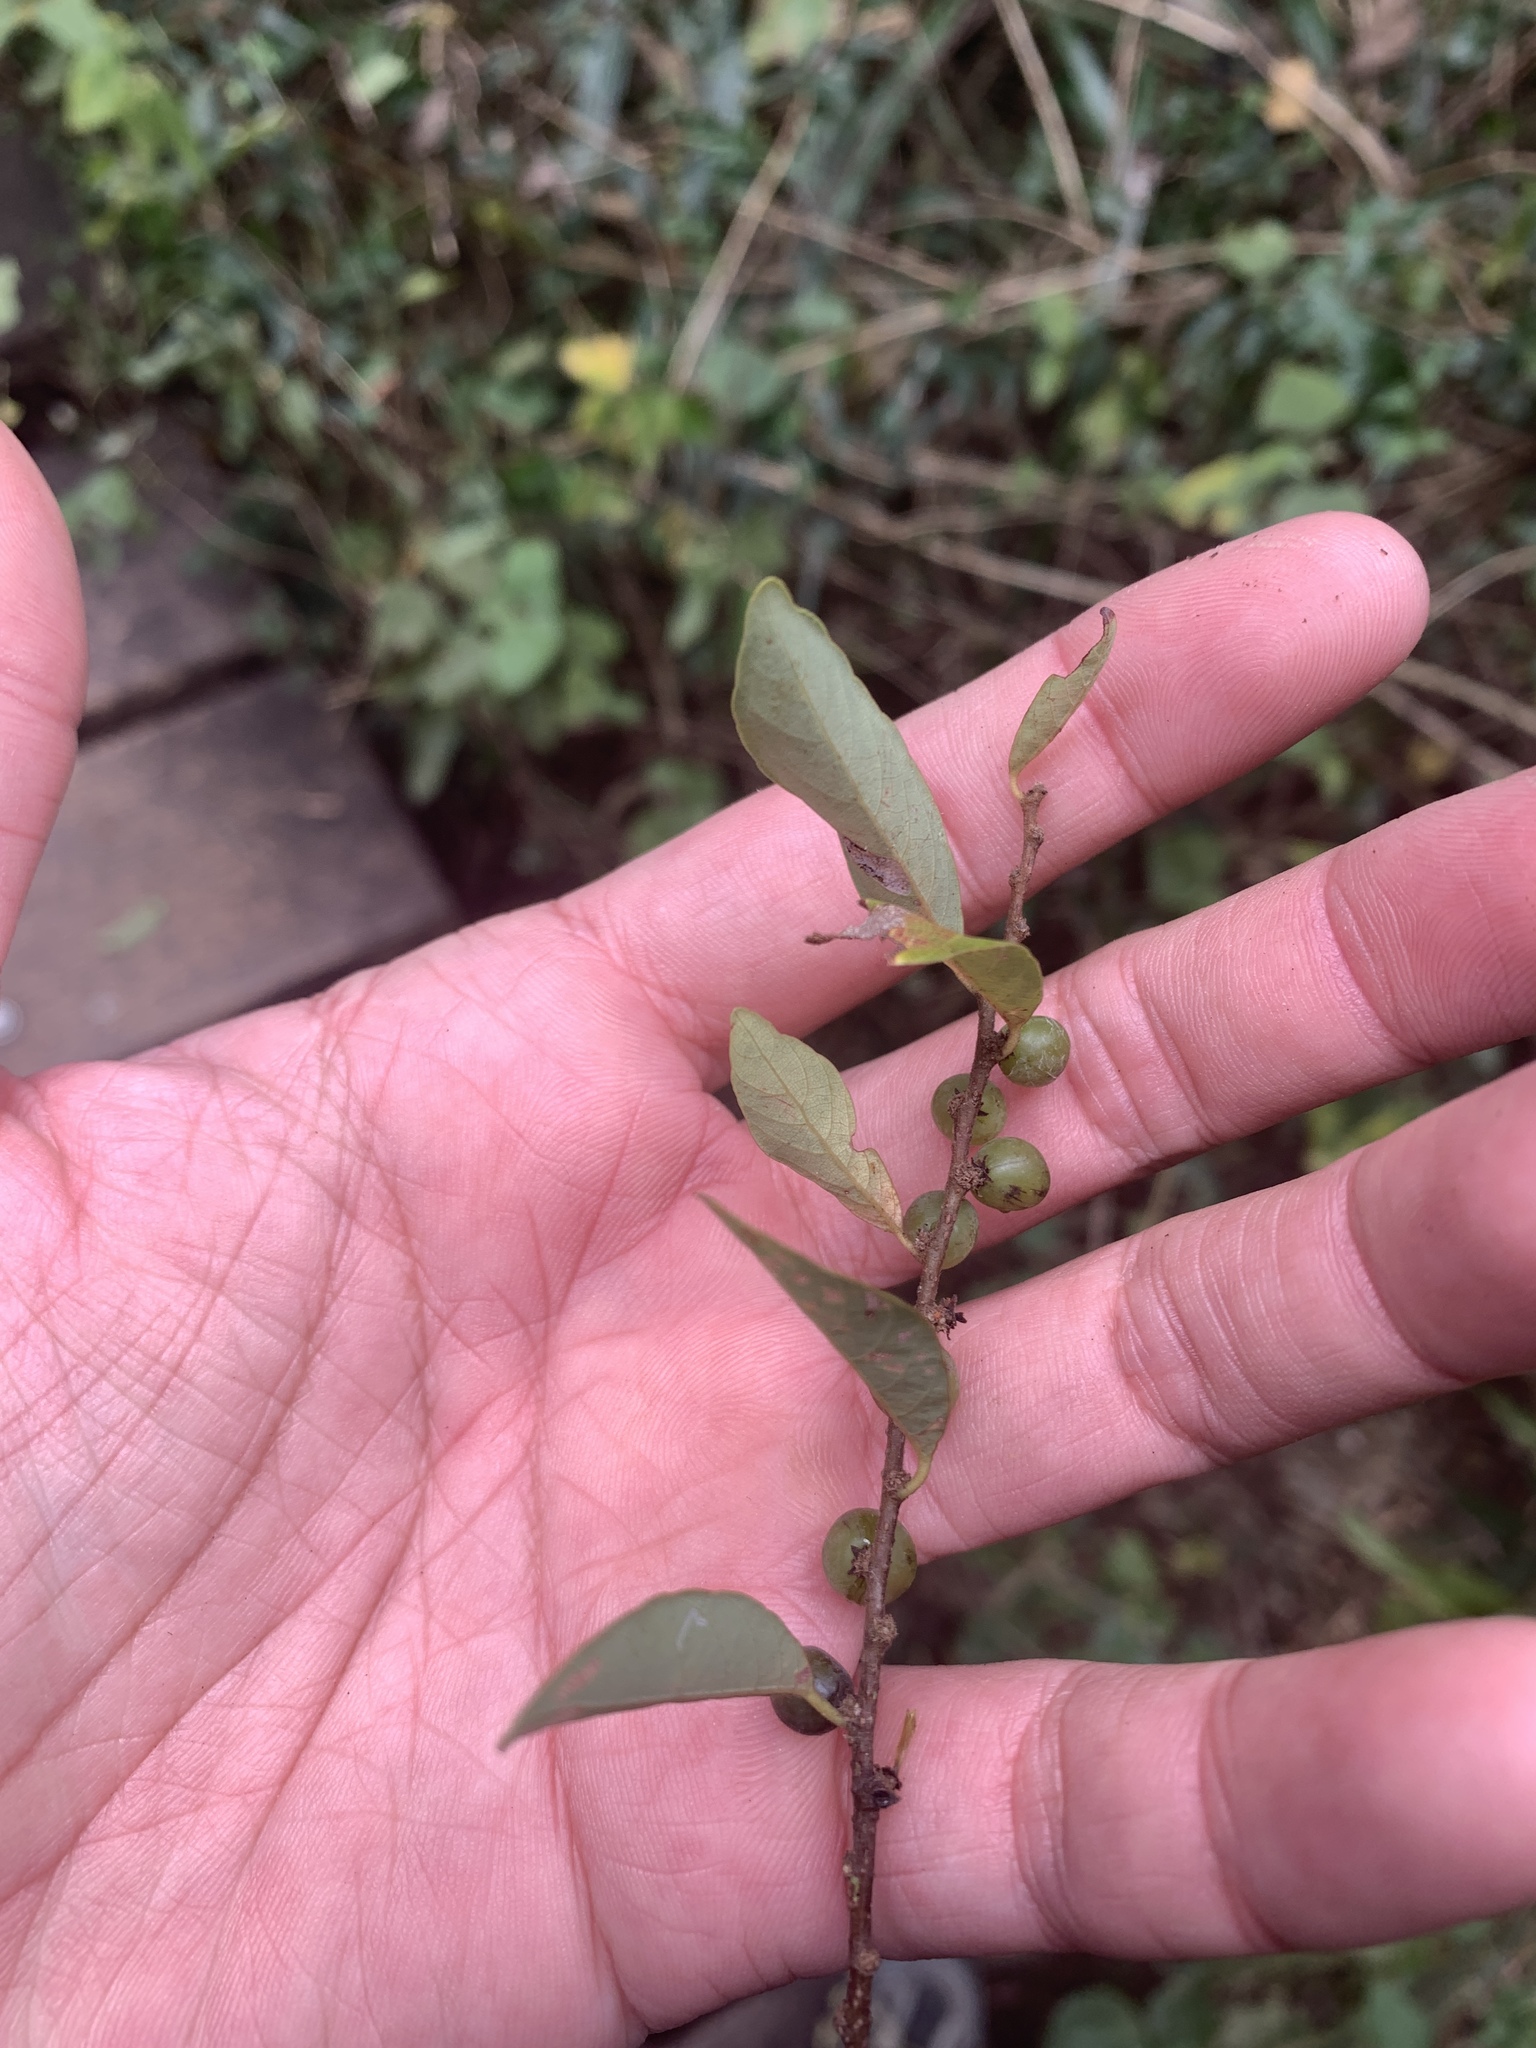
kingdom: Plantae
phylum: Tracheophyta
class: Magnoliopsida
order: Malpighiales
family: Phyllanthaceae
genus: Bridelia
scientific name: Bridelia tomentosa
